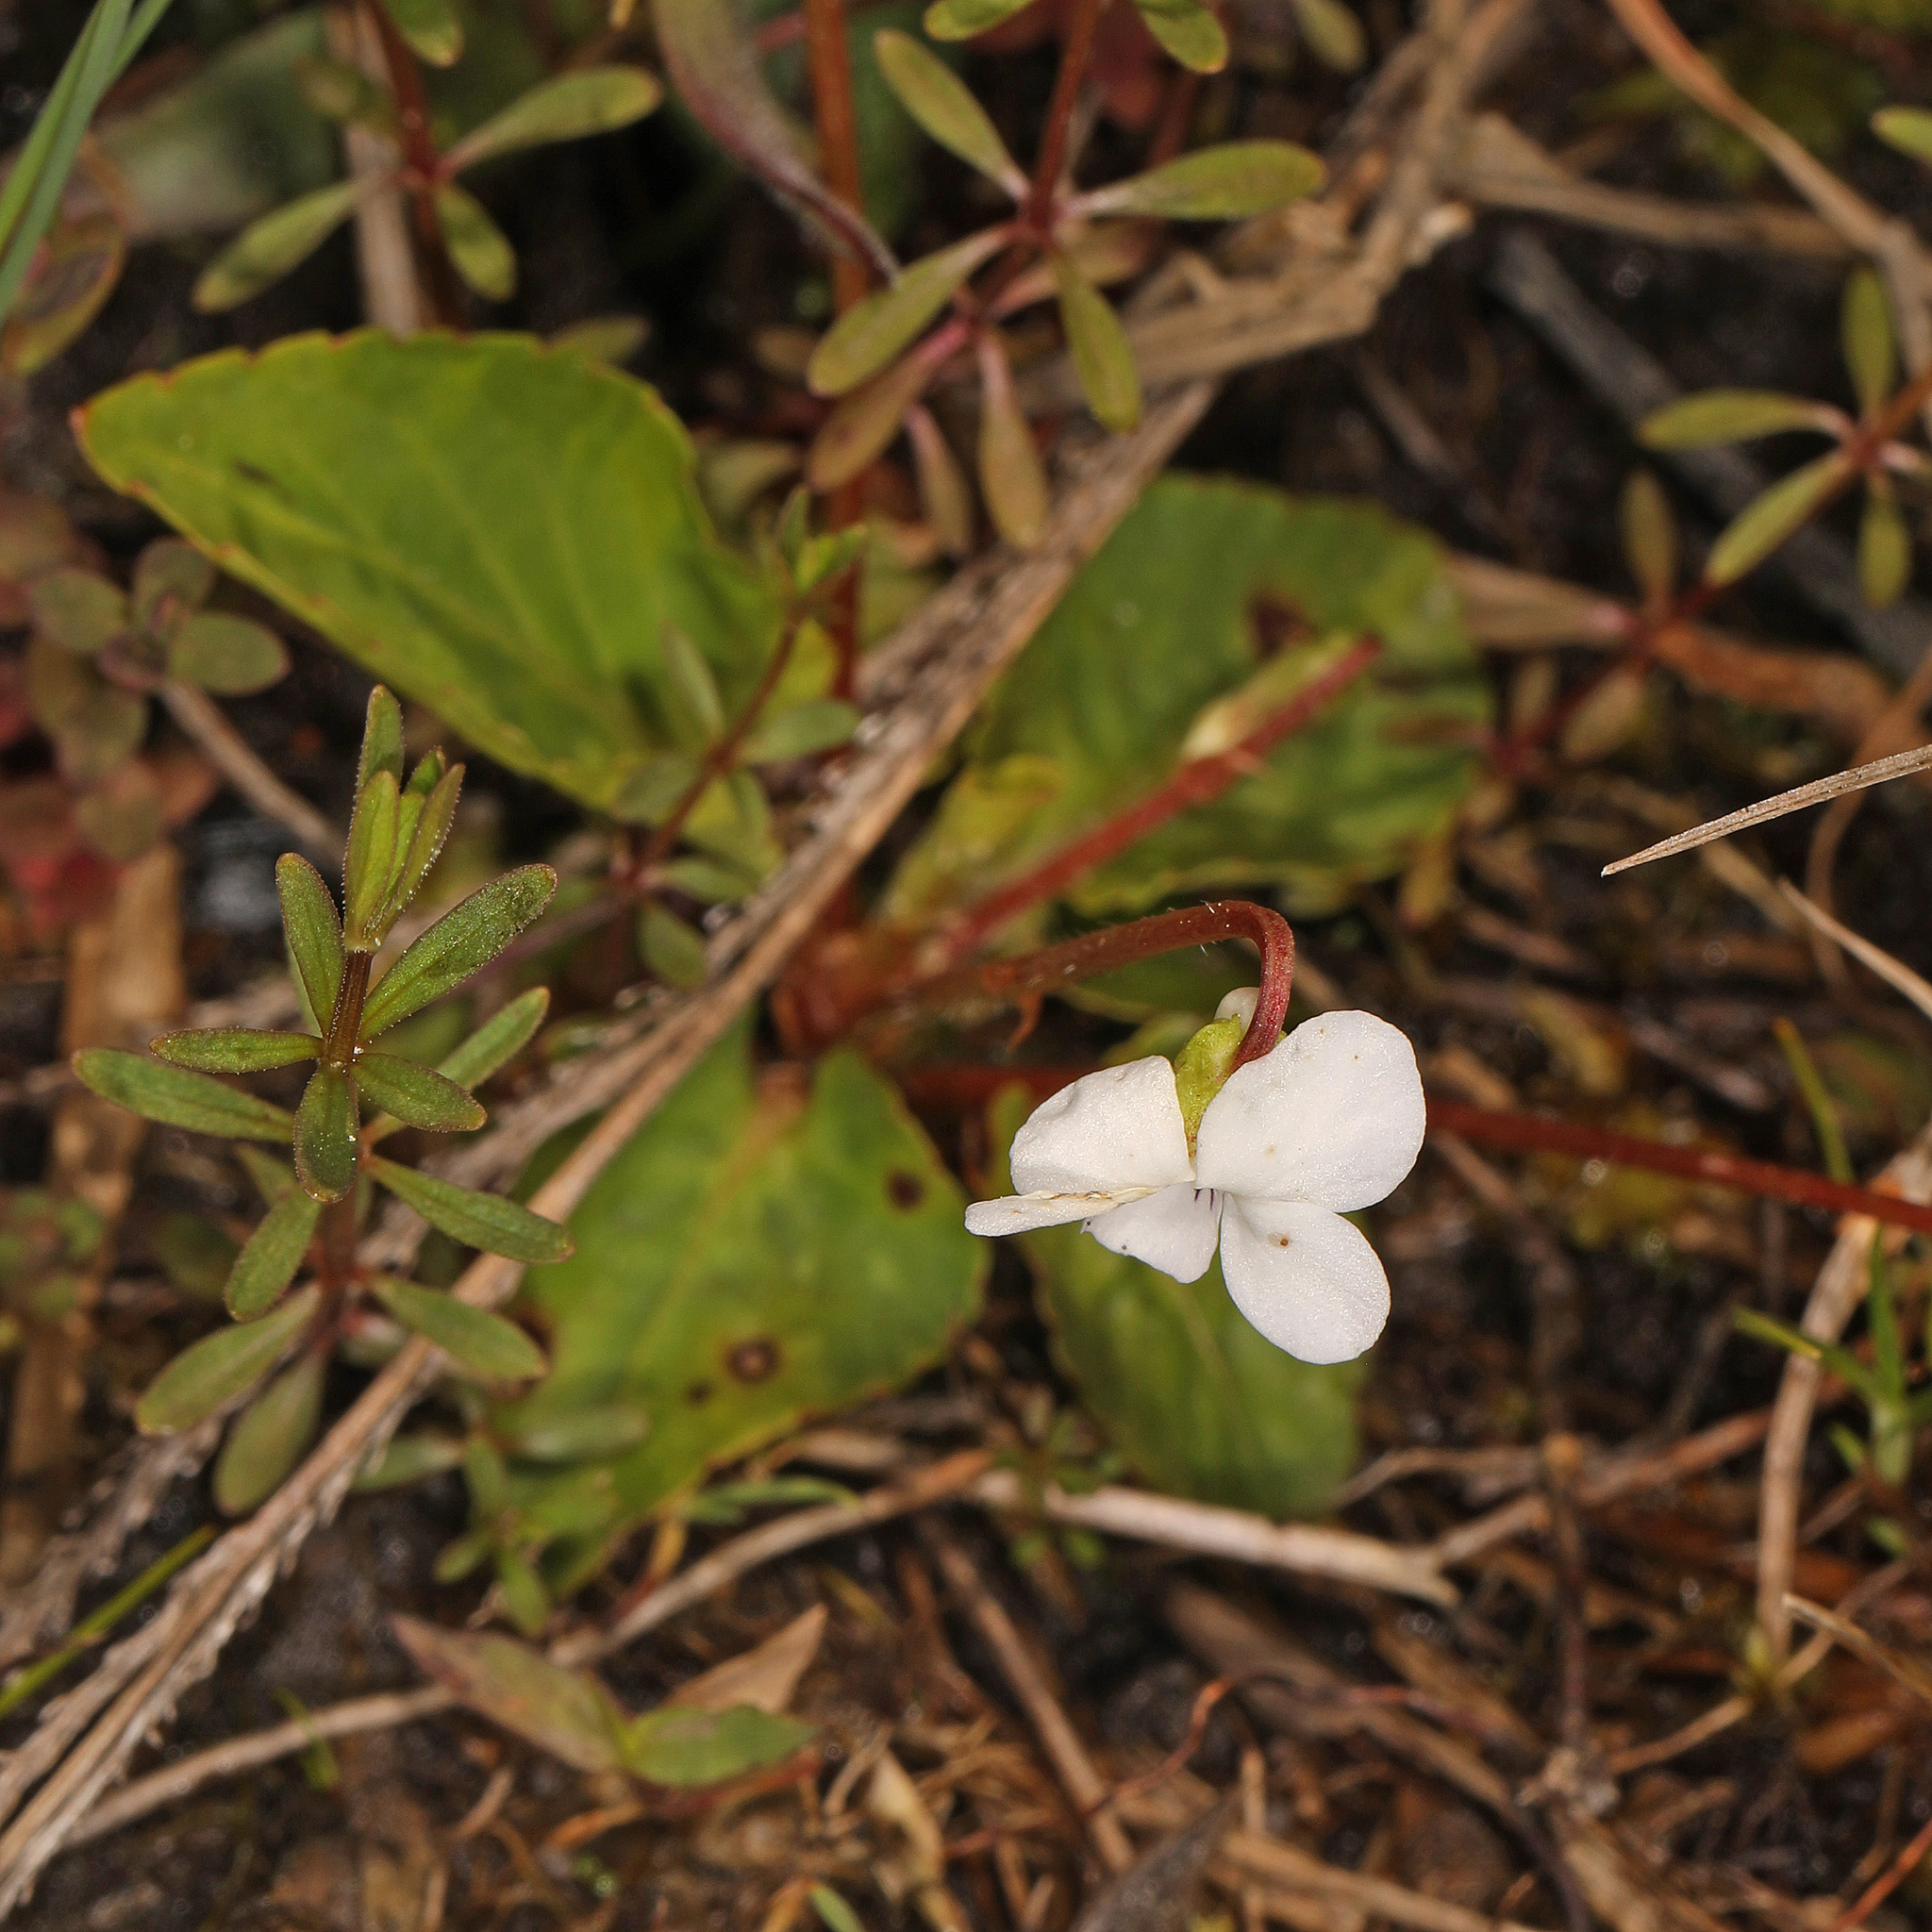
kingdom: Plantae
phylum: Tracheophyta
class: Magnoliopsida
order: Malpighiales
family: Violaceae
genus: Viola
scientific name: Viola primulifolia
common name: Primrose-leaf violet
